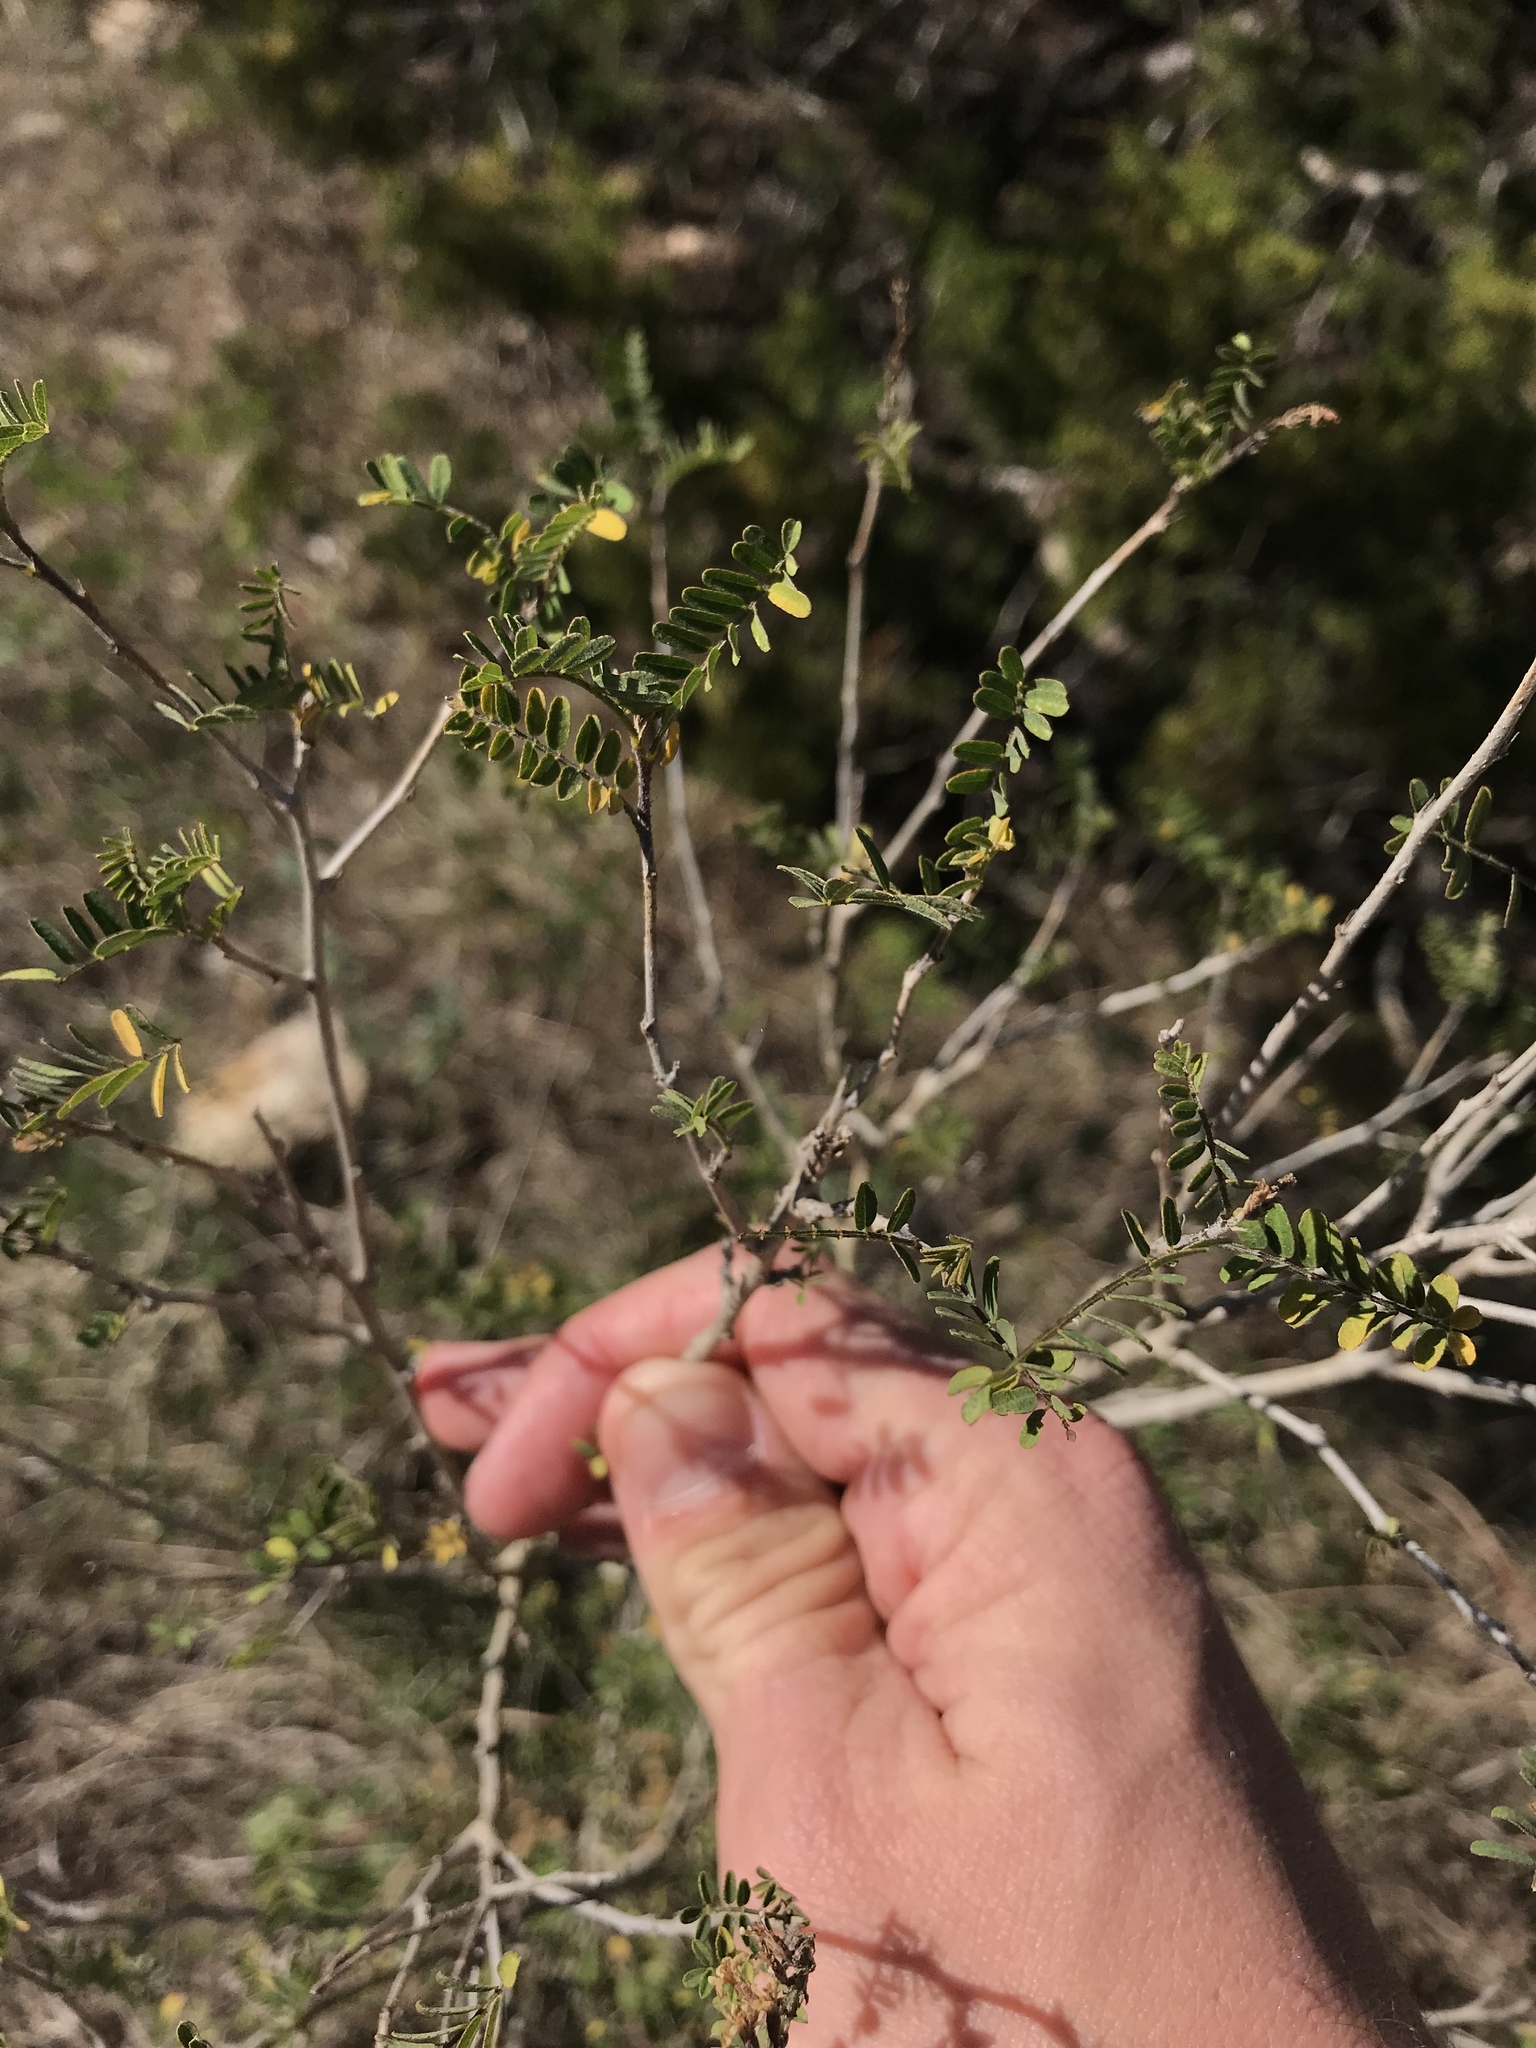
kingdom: Plantae
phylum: Tracheophyta
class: Magnoliopsida
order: Fabales
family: Fabaceae
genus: Eysenhardtia
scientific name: Eysenhardtia texana
